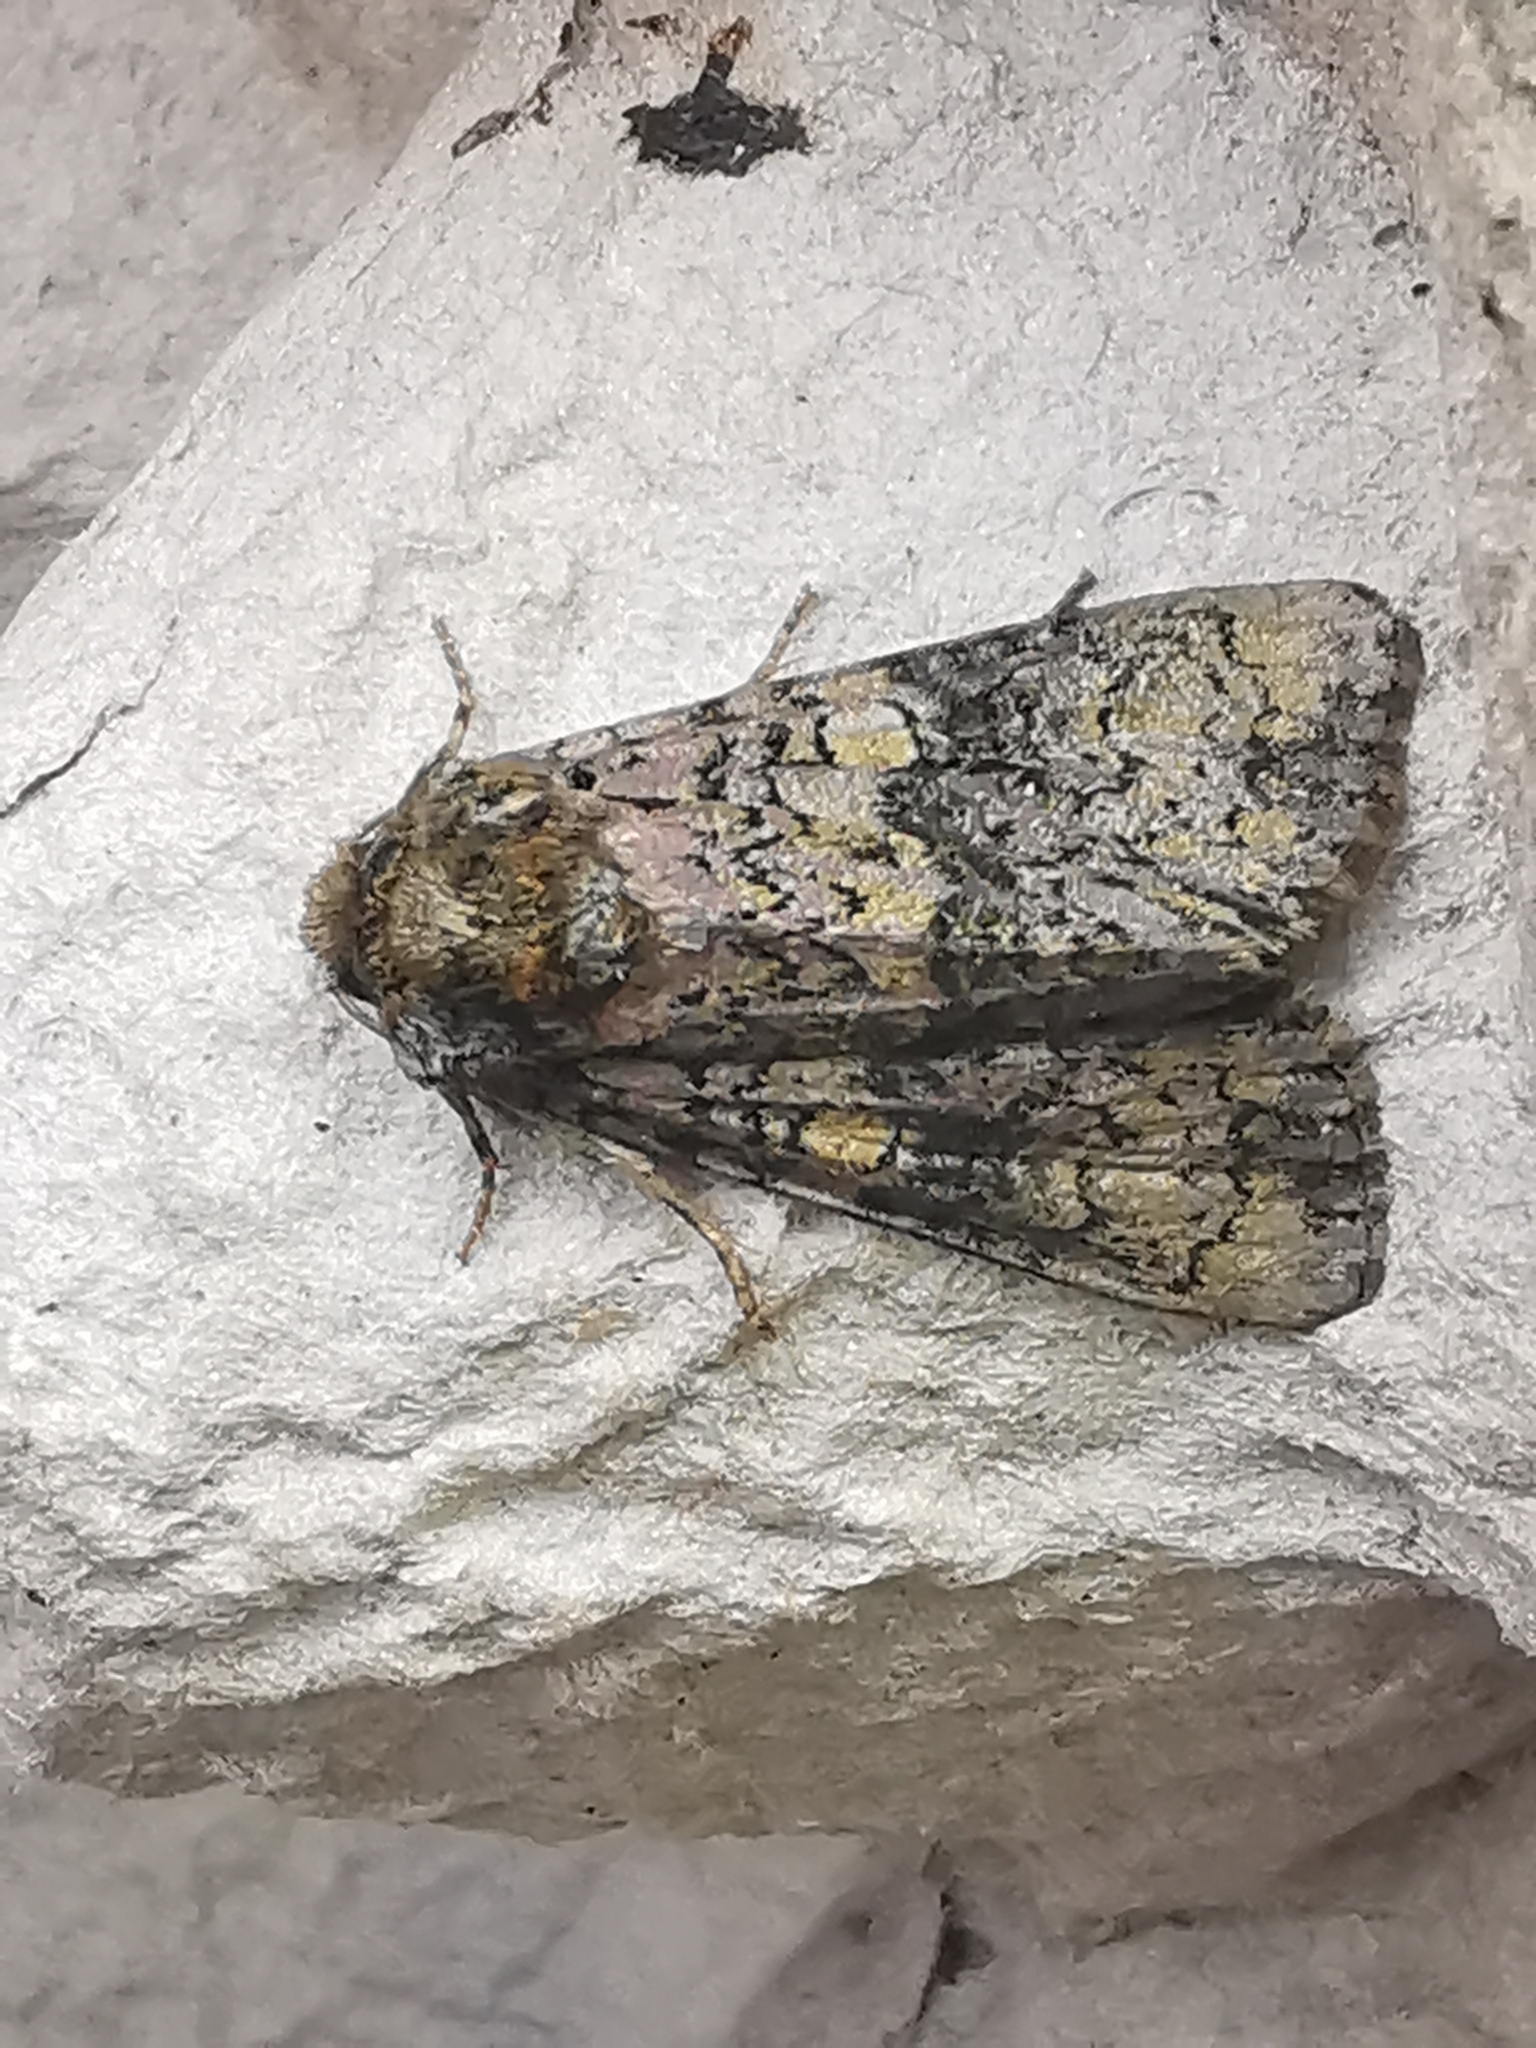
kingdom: Animalia
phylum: Arthropoda
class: Insecta
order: Lepidoptera
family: Noctuidae
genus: Craniophora
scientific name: Craniophora ligustri
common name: Coronet
